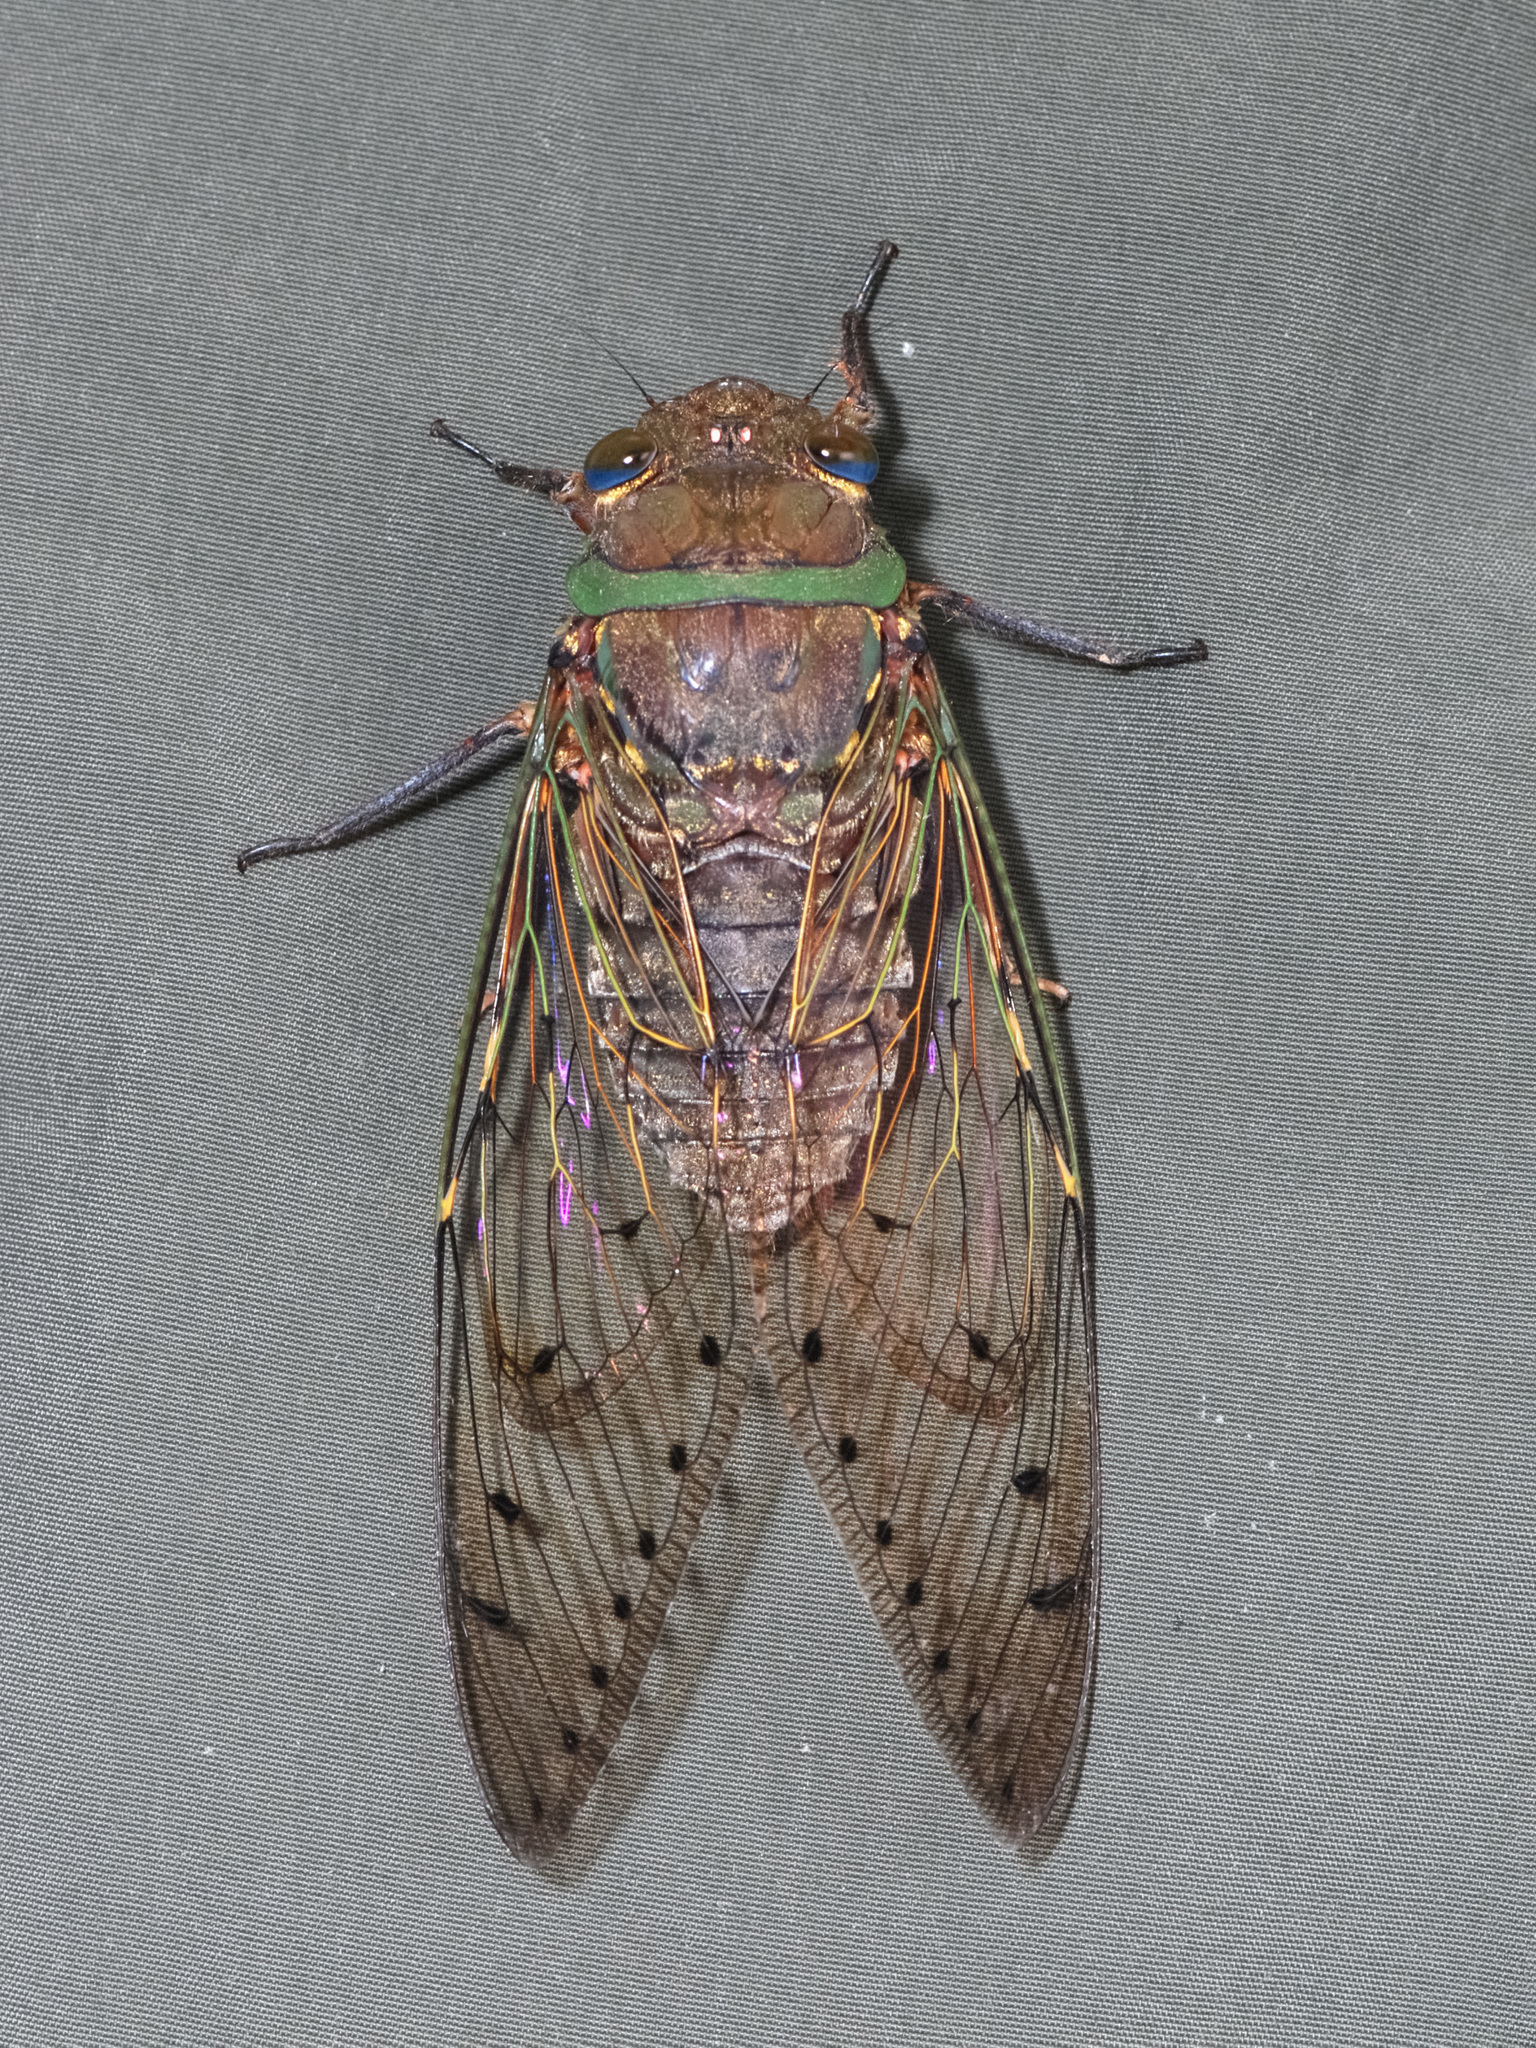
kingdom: Animalia
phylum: Arthropoda
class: Insecta
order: Hemiptera
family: Cicadidae
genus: Unipomponia
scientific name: Unipomponia decem
